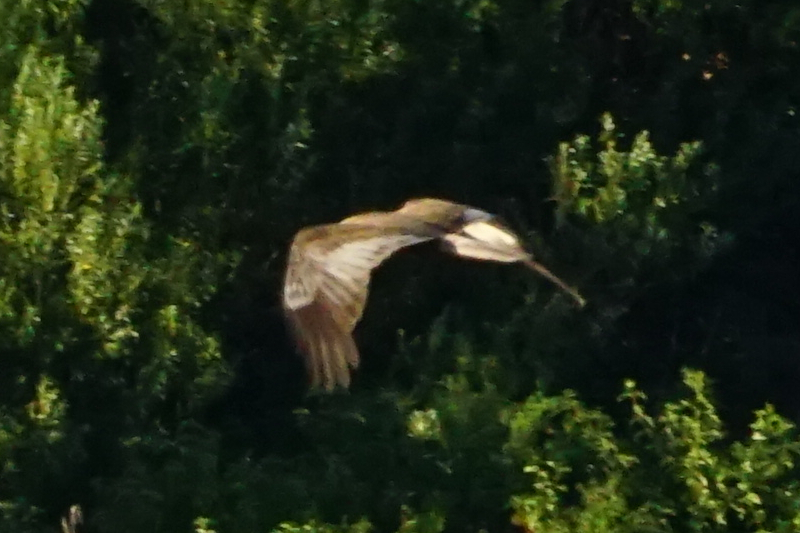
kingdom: Animalia
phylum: Chordata
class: Aves
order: Accipitriformes
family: Accipitridae
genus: Circus
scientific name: Circus aeruginosus
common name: Western marsh harrier
